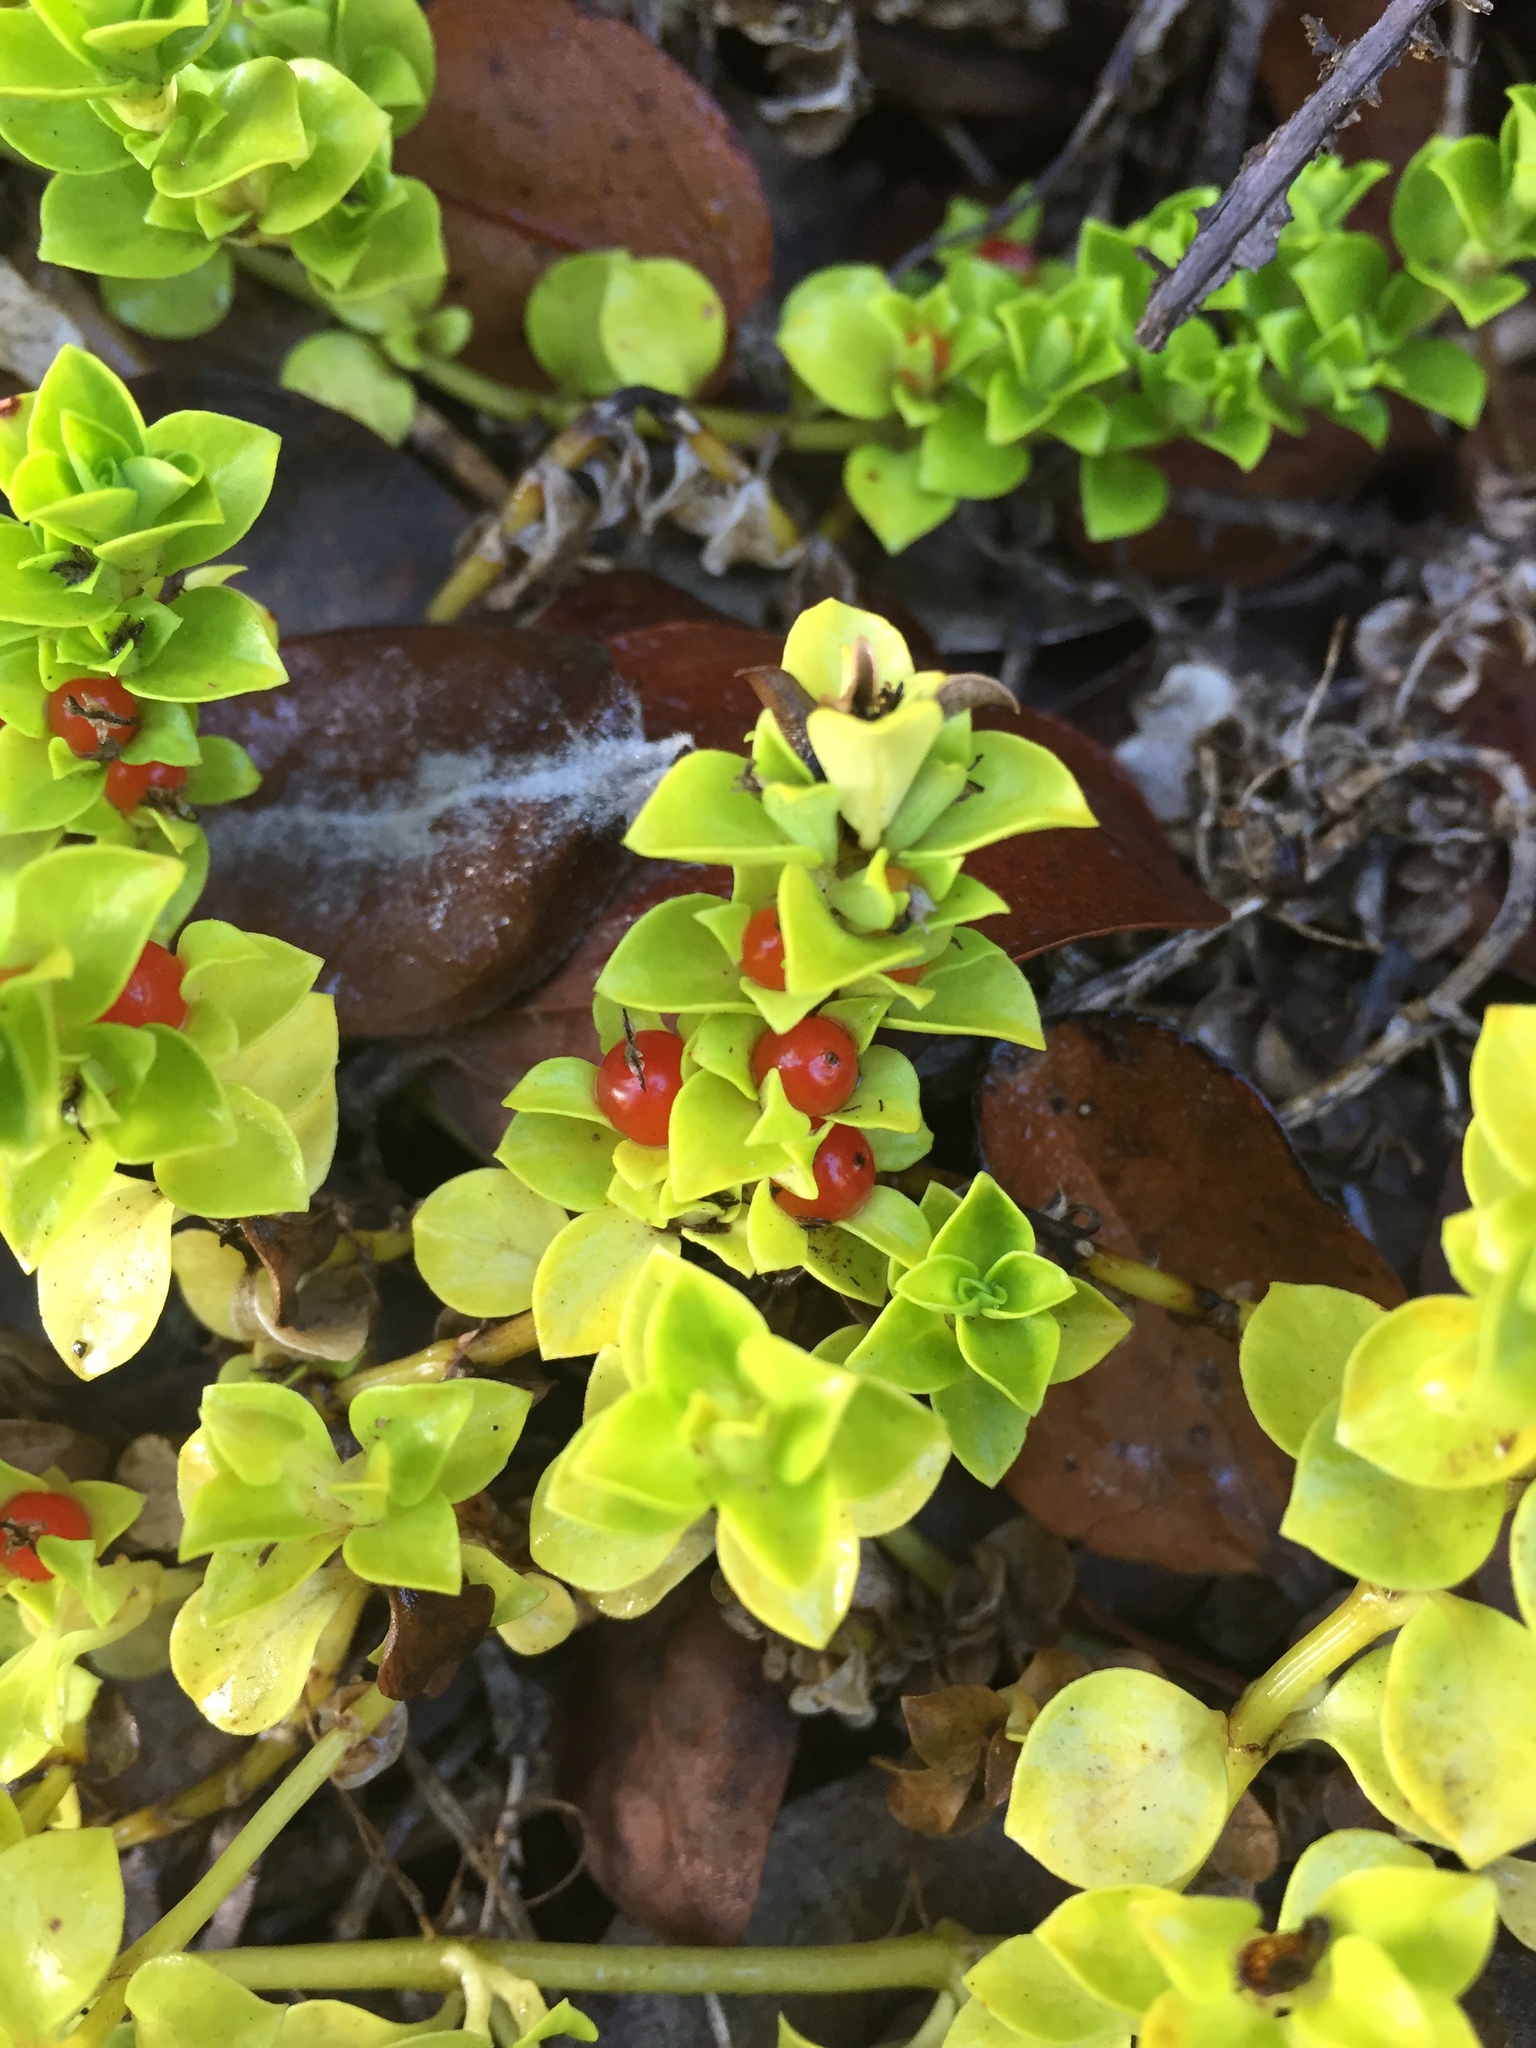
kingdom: Plantae
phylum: Tracheophyta
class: Magnoliopsida
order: Gentianales
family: Rubiaceae
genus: Nertera
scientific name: Nertera granadensis
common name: Beadplant
